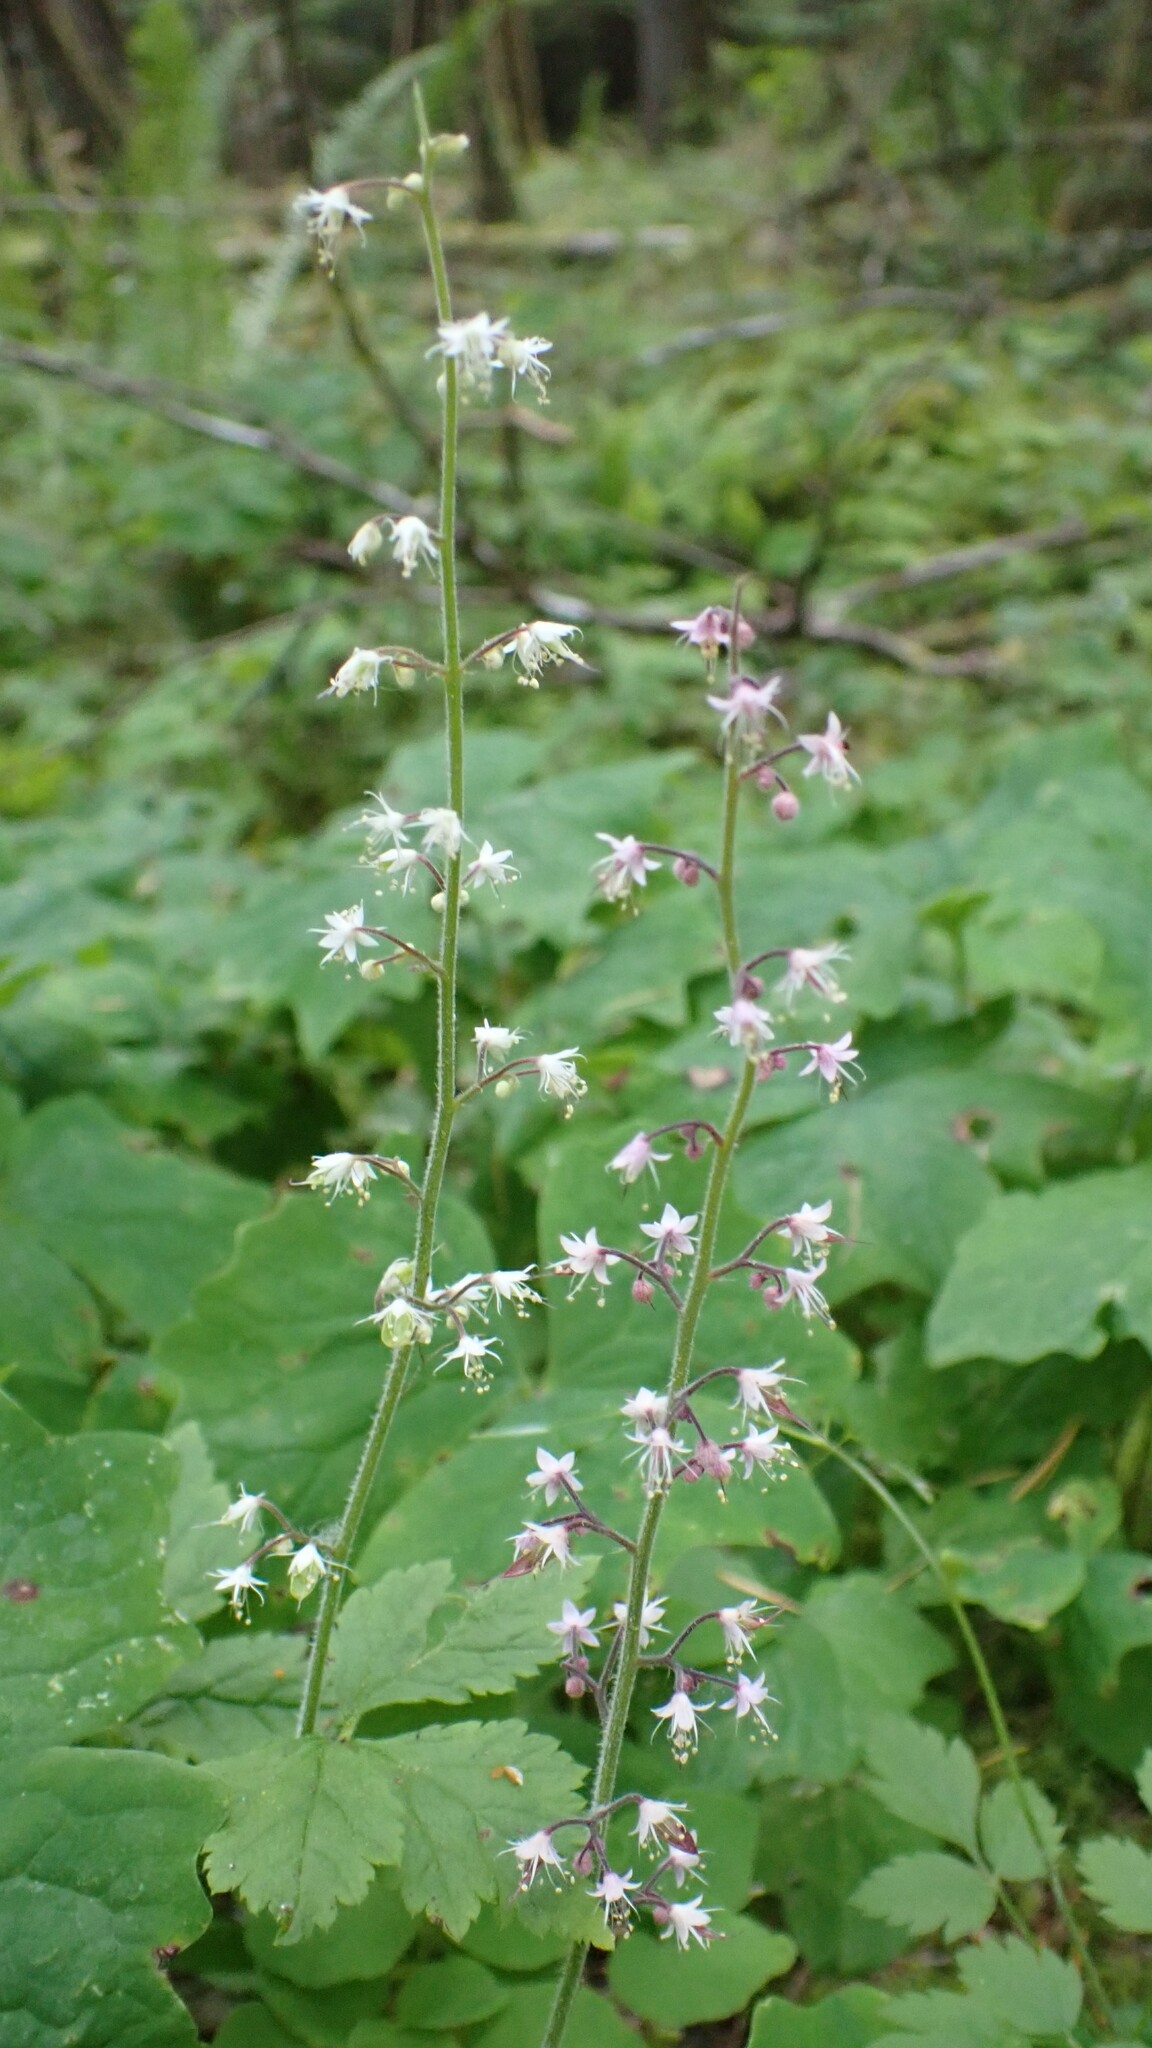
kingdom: Plantae
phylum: Tracheophyta
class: Magnoliopsida
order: Saxifragales
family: Saxifragaceae
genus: Tiarella
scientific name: Tiarella trifoliata
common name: Sugar-scoop
